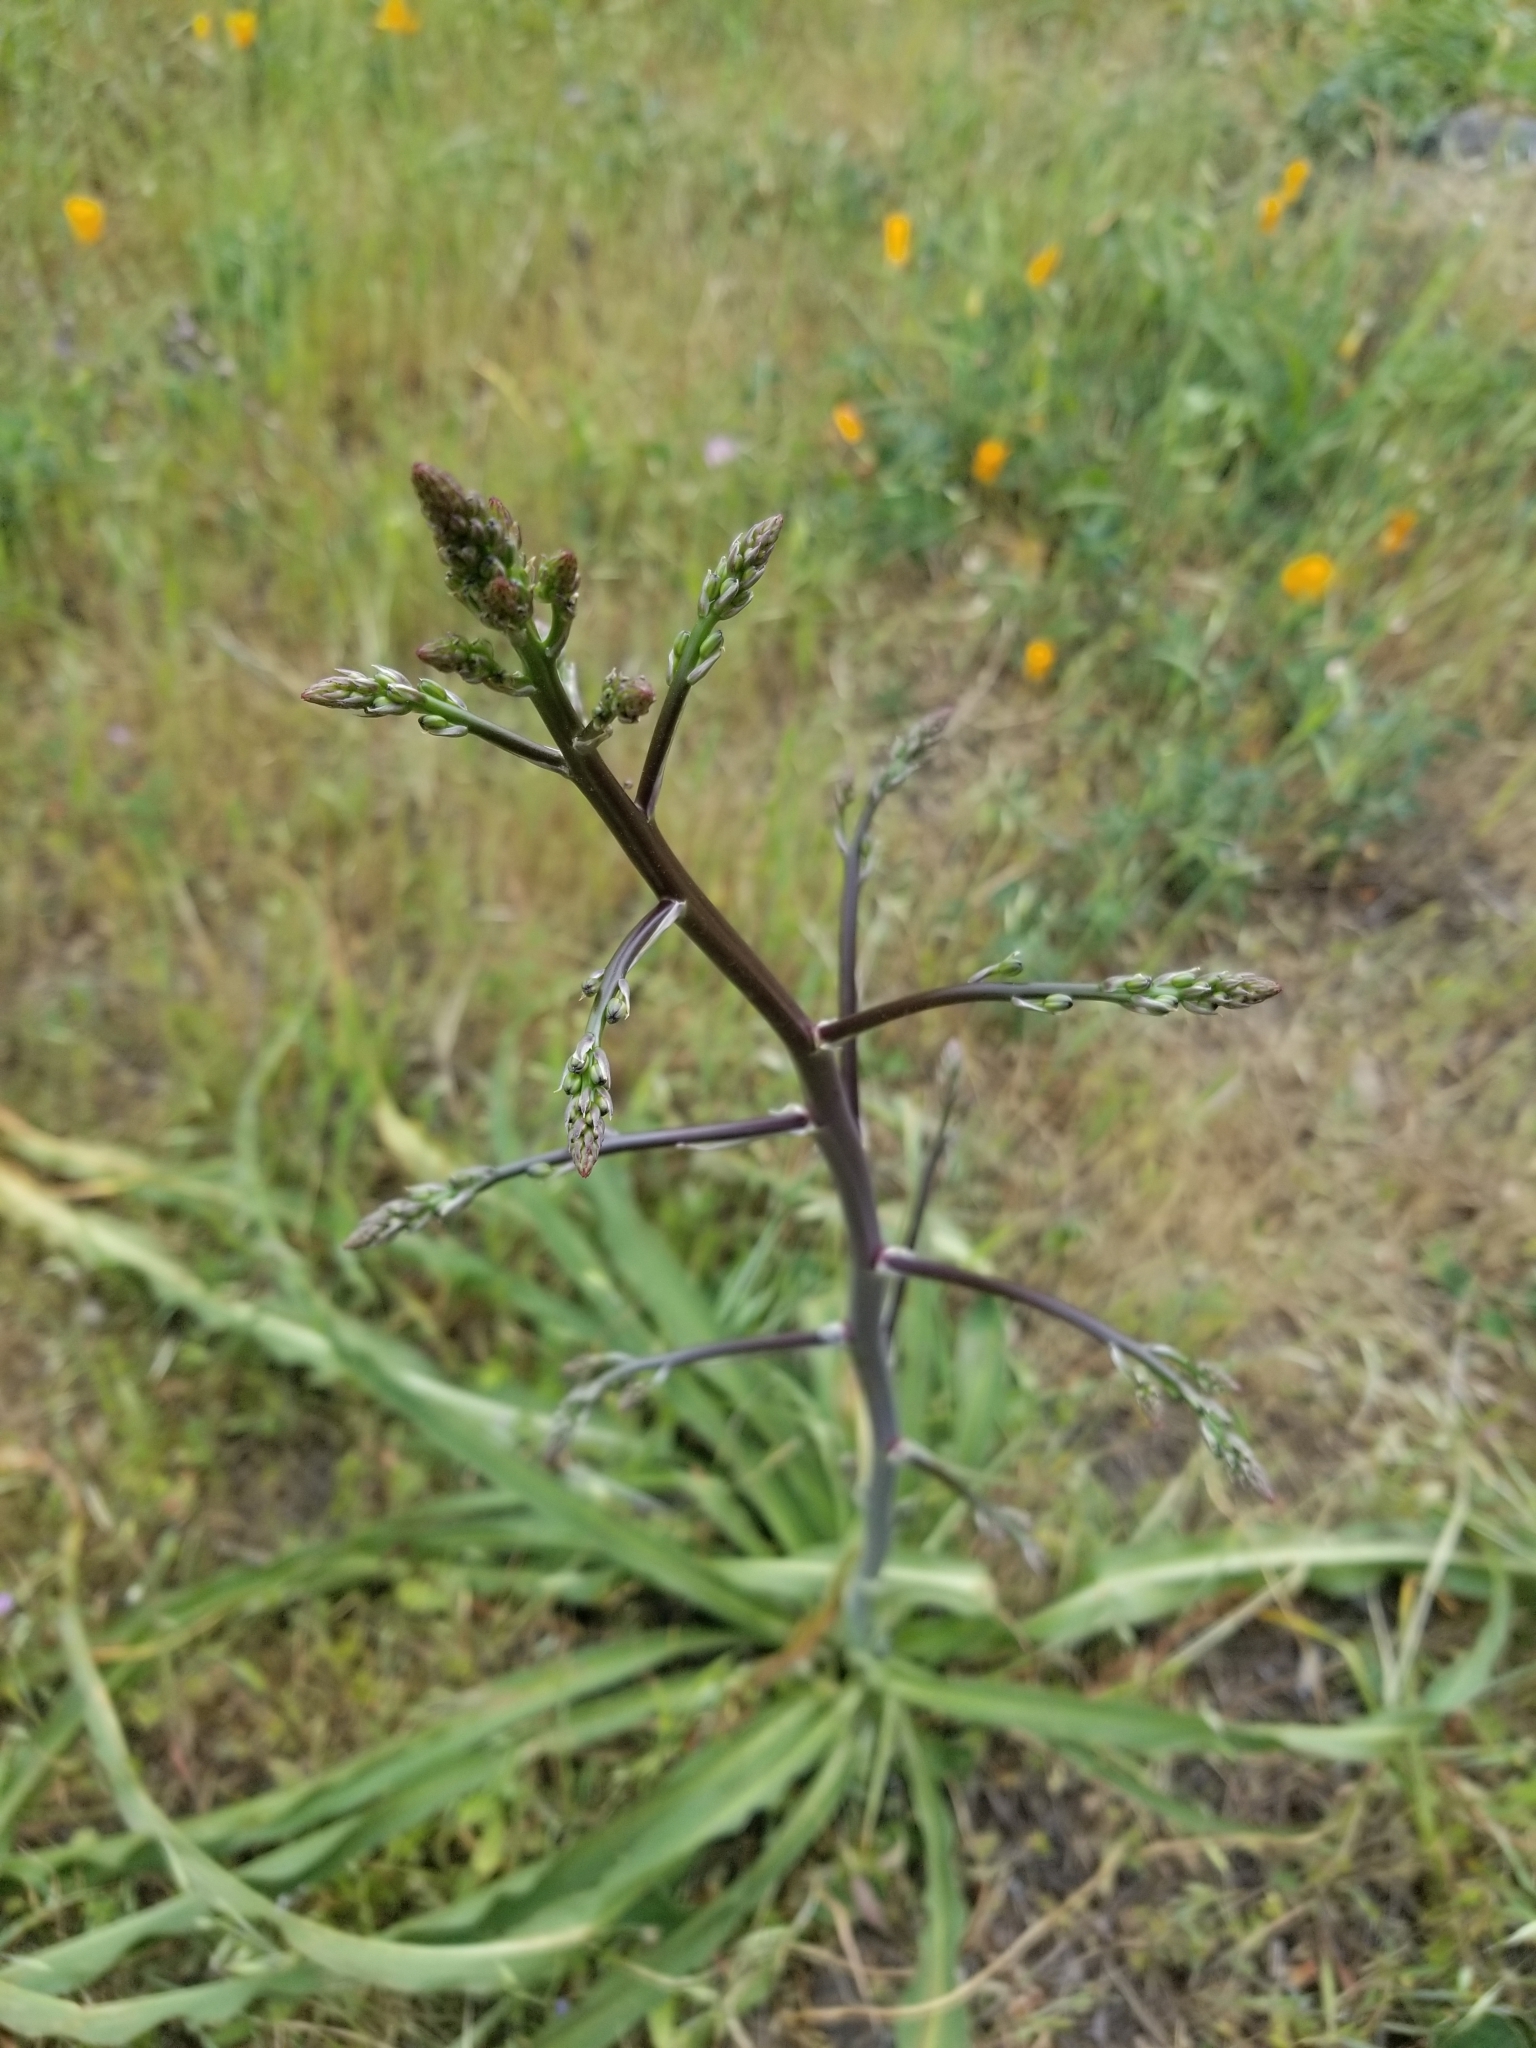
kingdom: Plantae
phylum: Tracheophyta
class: Liliopsida
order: Asparagales
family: Asparagaceae
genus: Chlorogalum
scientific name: Chlorogalum pomeridianum
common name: Amole
